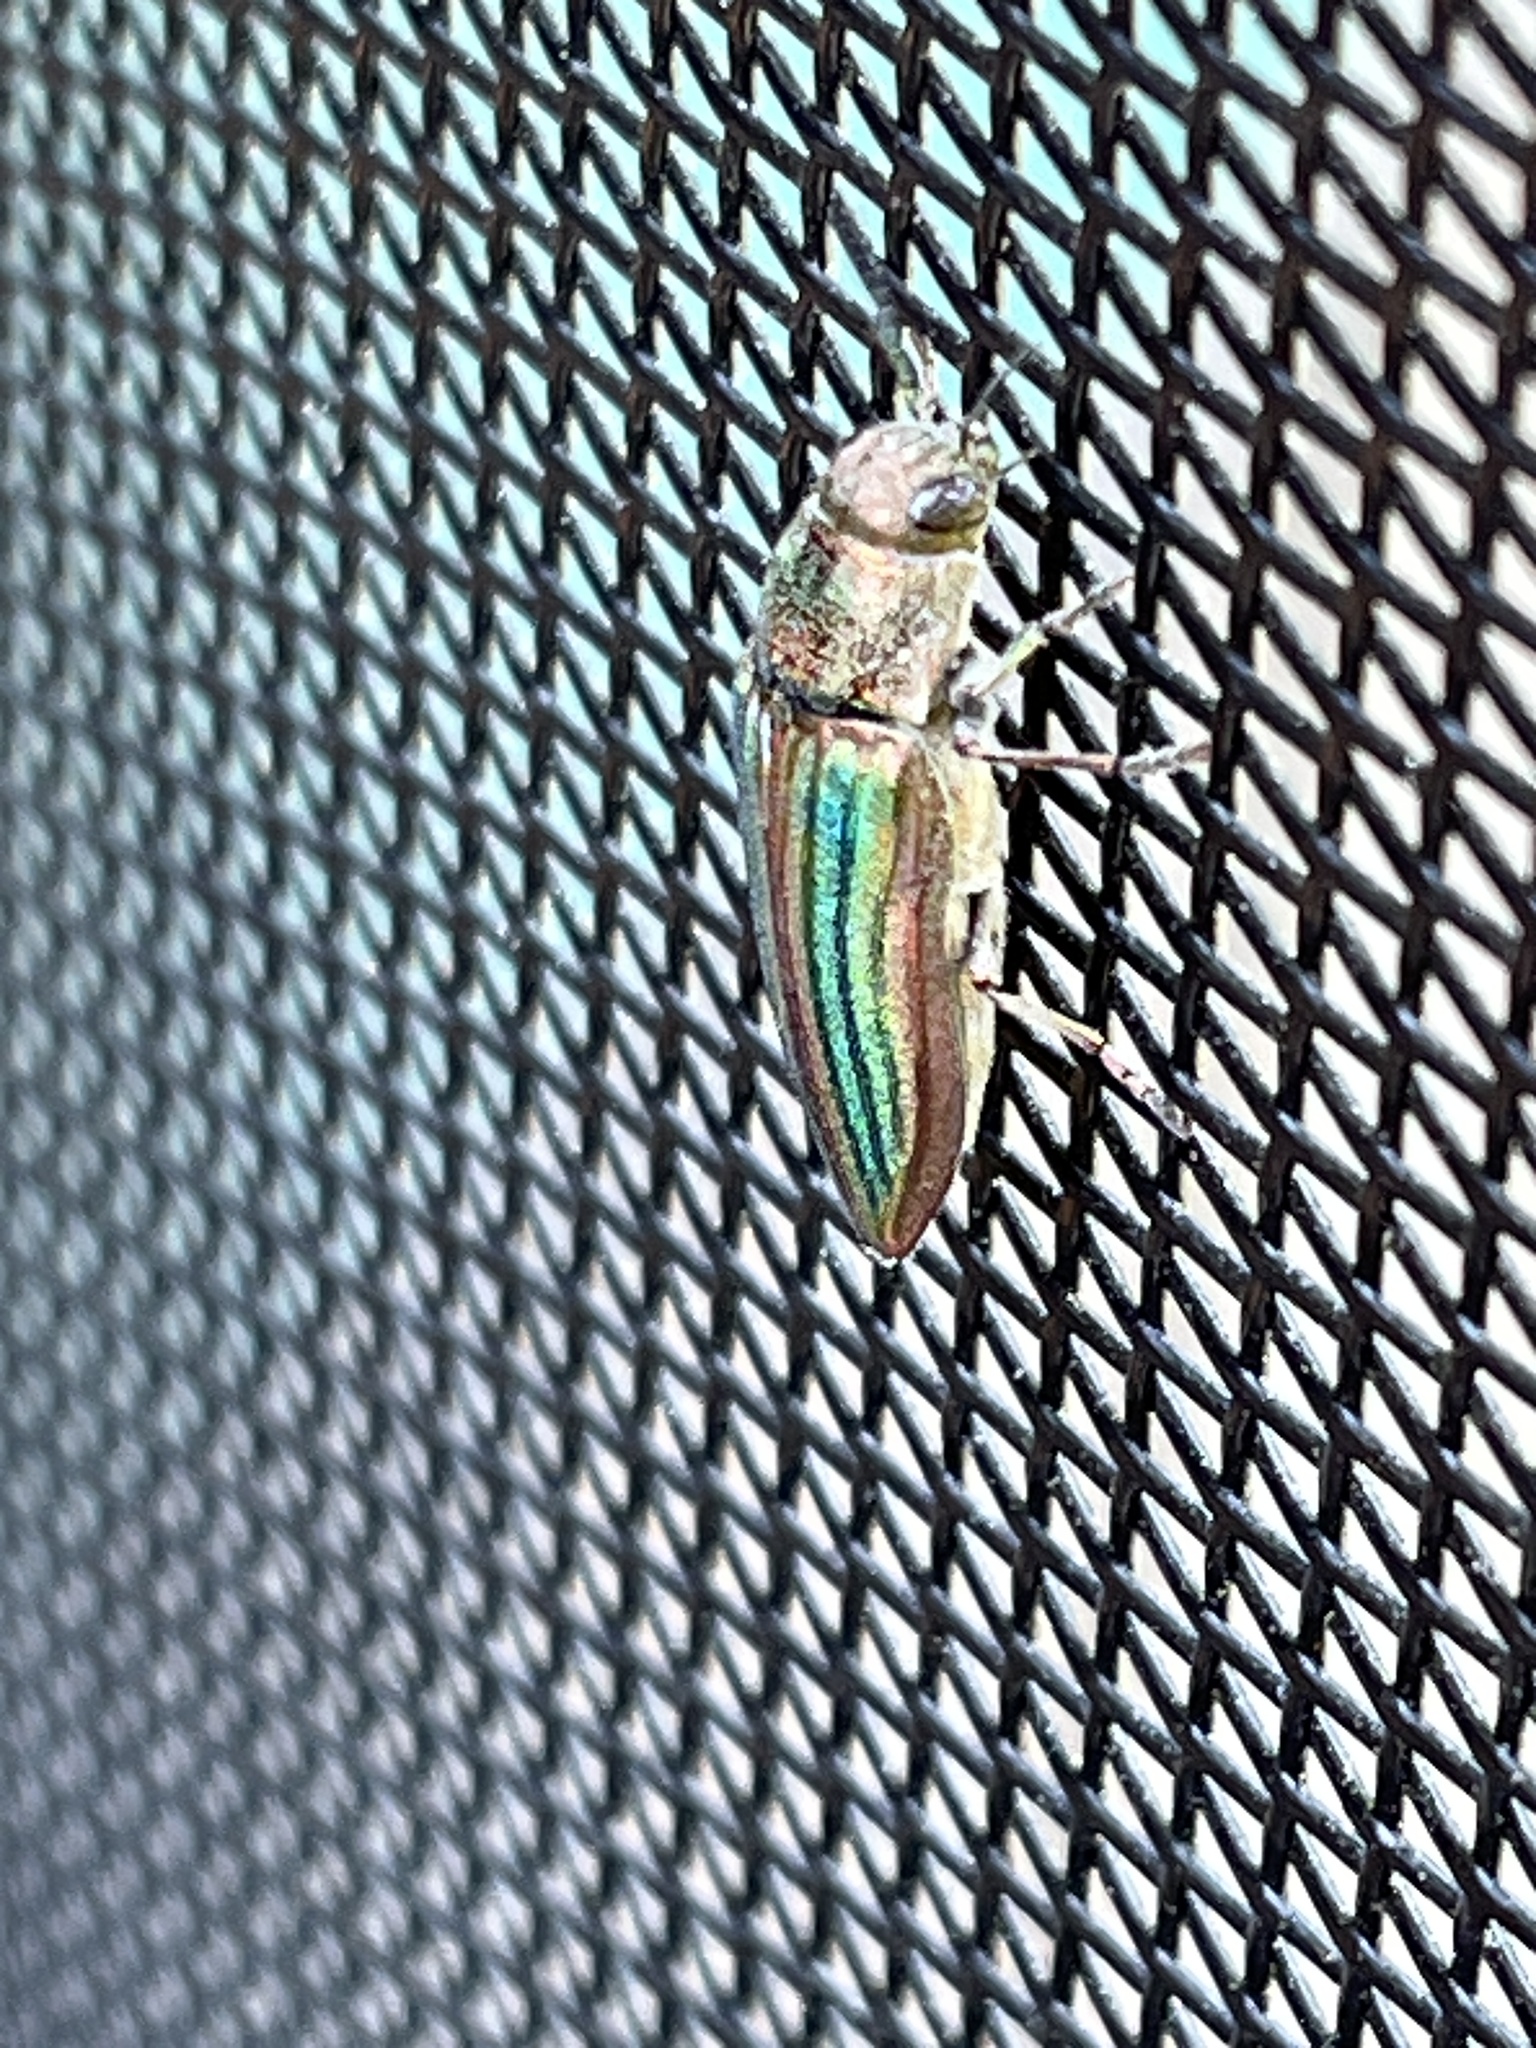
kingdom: Animalia
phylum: Arthropoda
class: Insecta
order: Coleoptera
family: Buprestidae
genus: Buprestis
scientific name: Buprestis striata
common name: Striated jewel beetle
